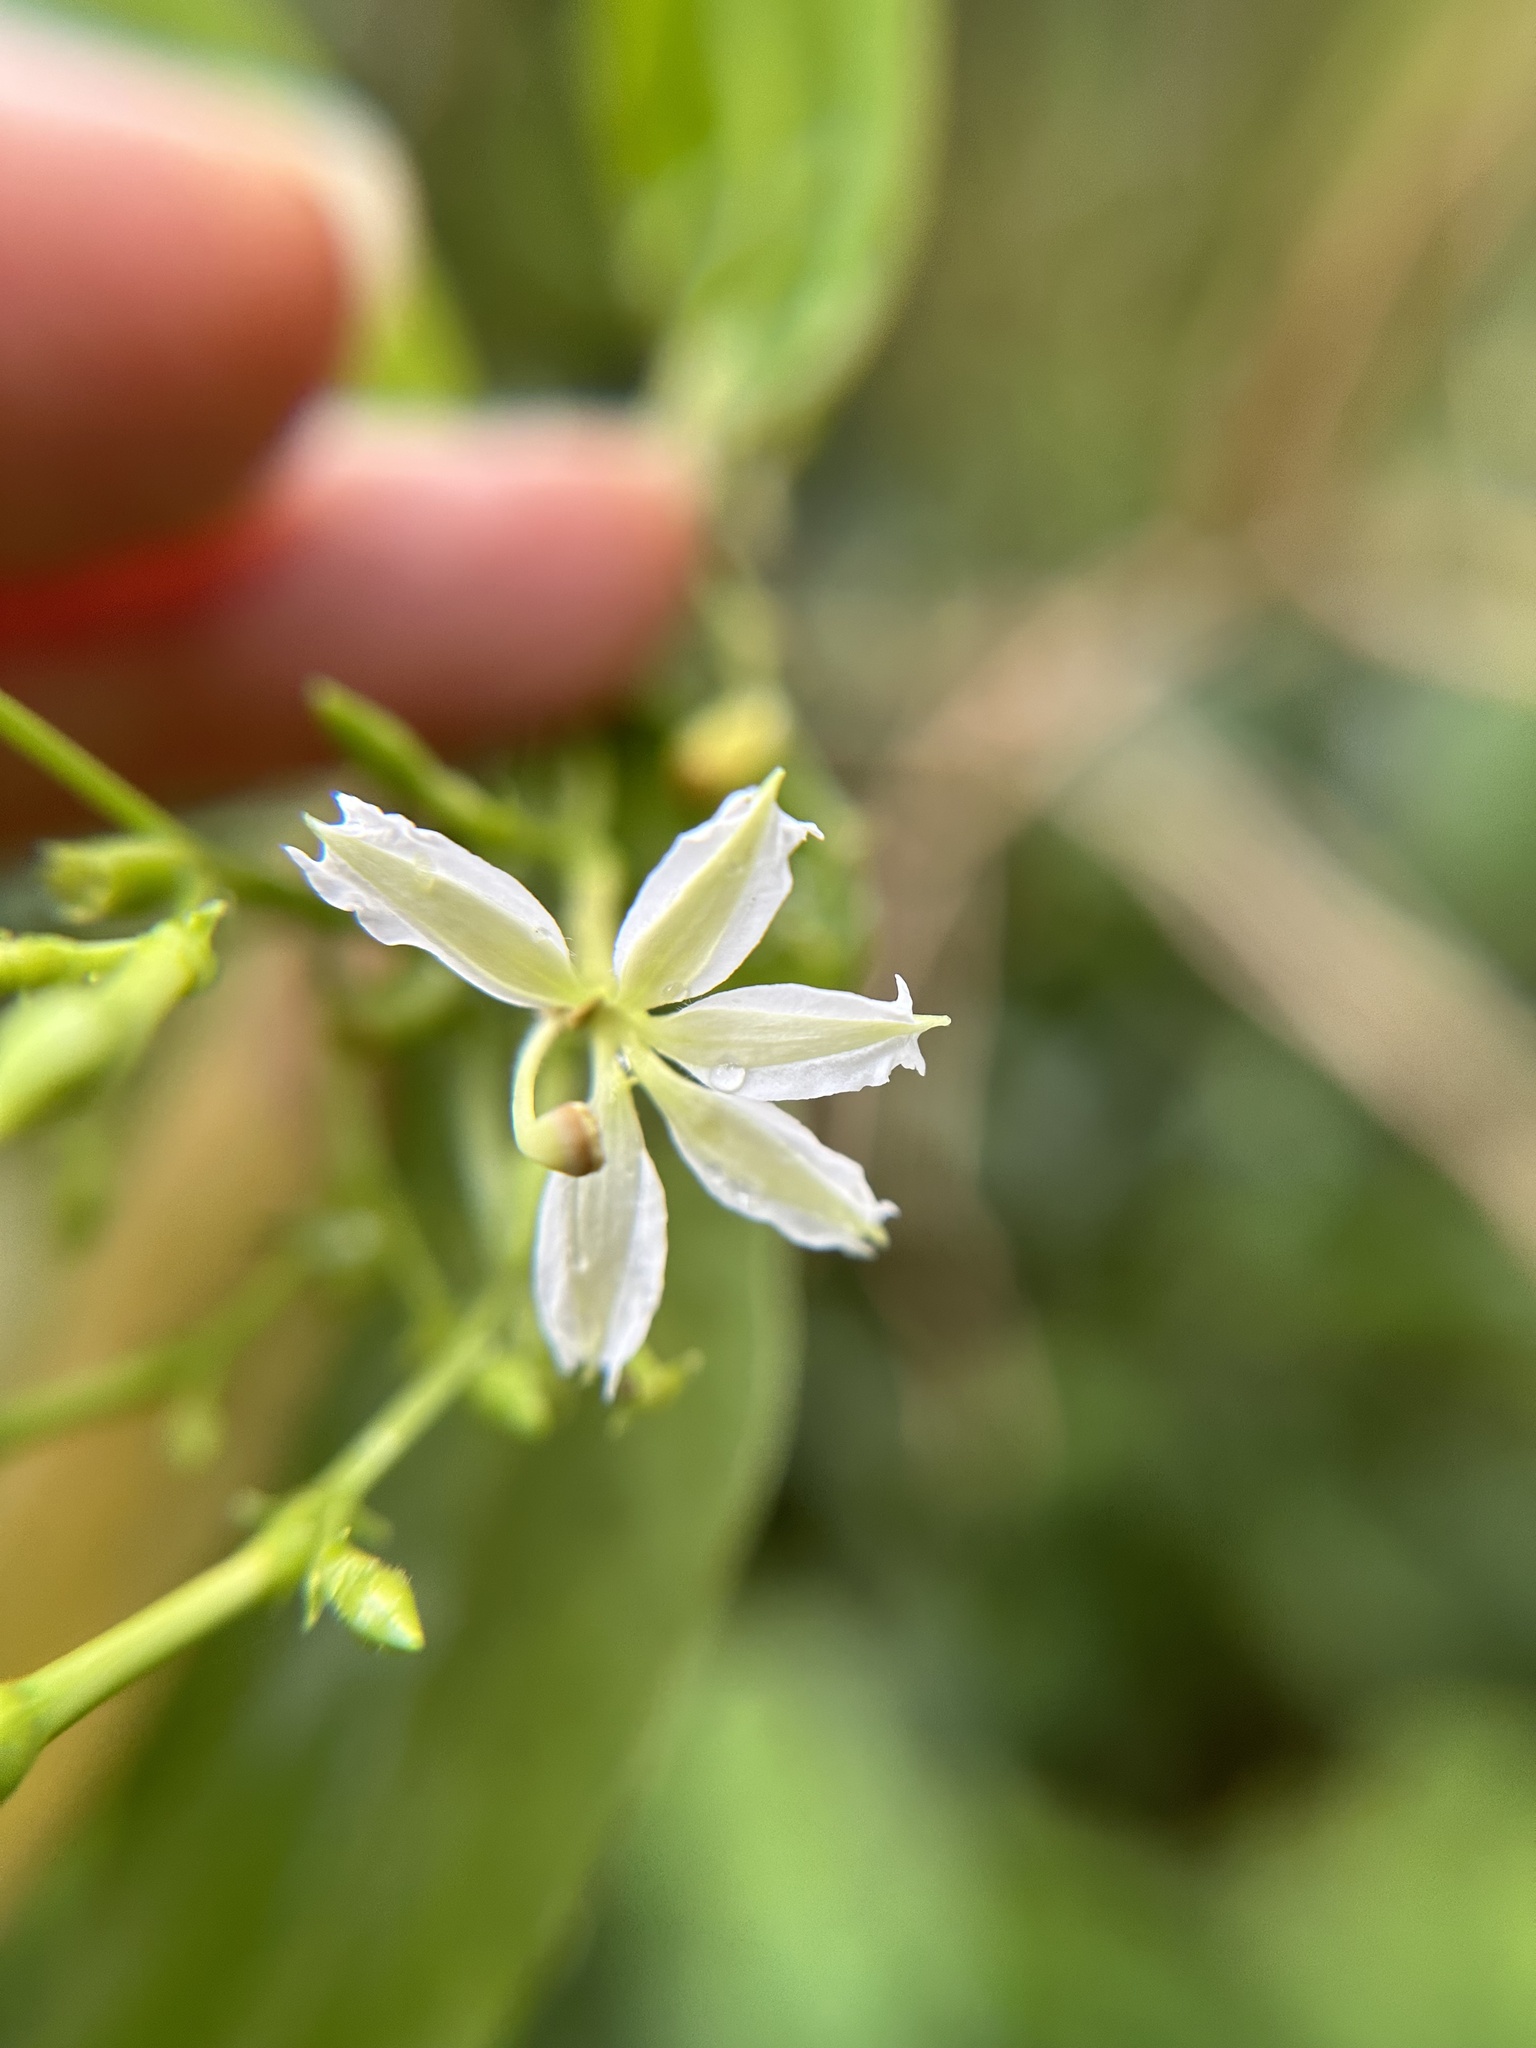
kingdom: Plantae
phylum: Tracheophyta
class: Magnoliopsida
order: Asterales
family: Goodeniaceae
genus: Scaevola
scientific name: Scaevola gaudichaudiana
